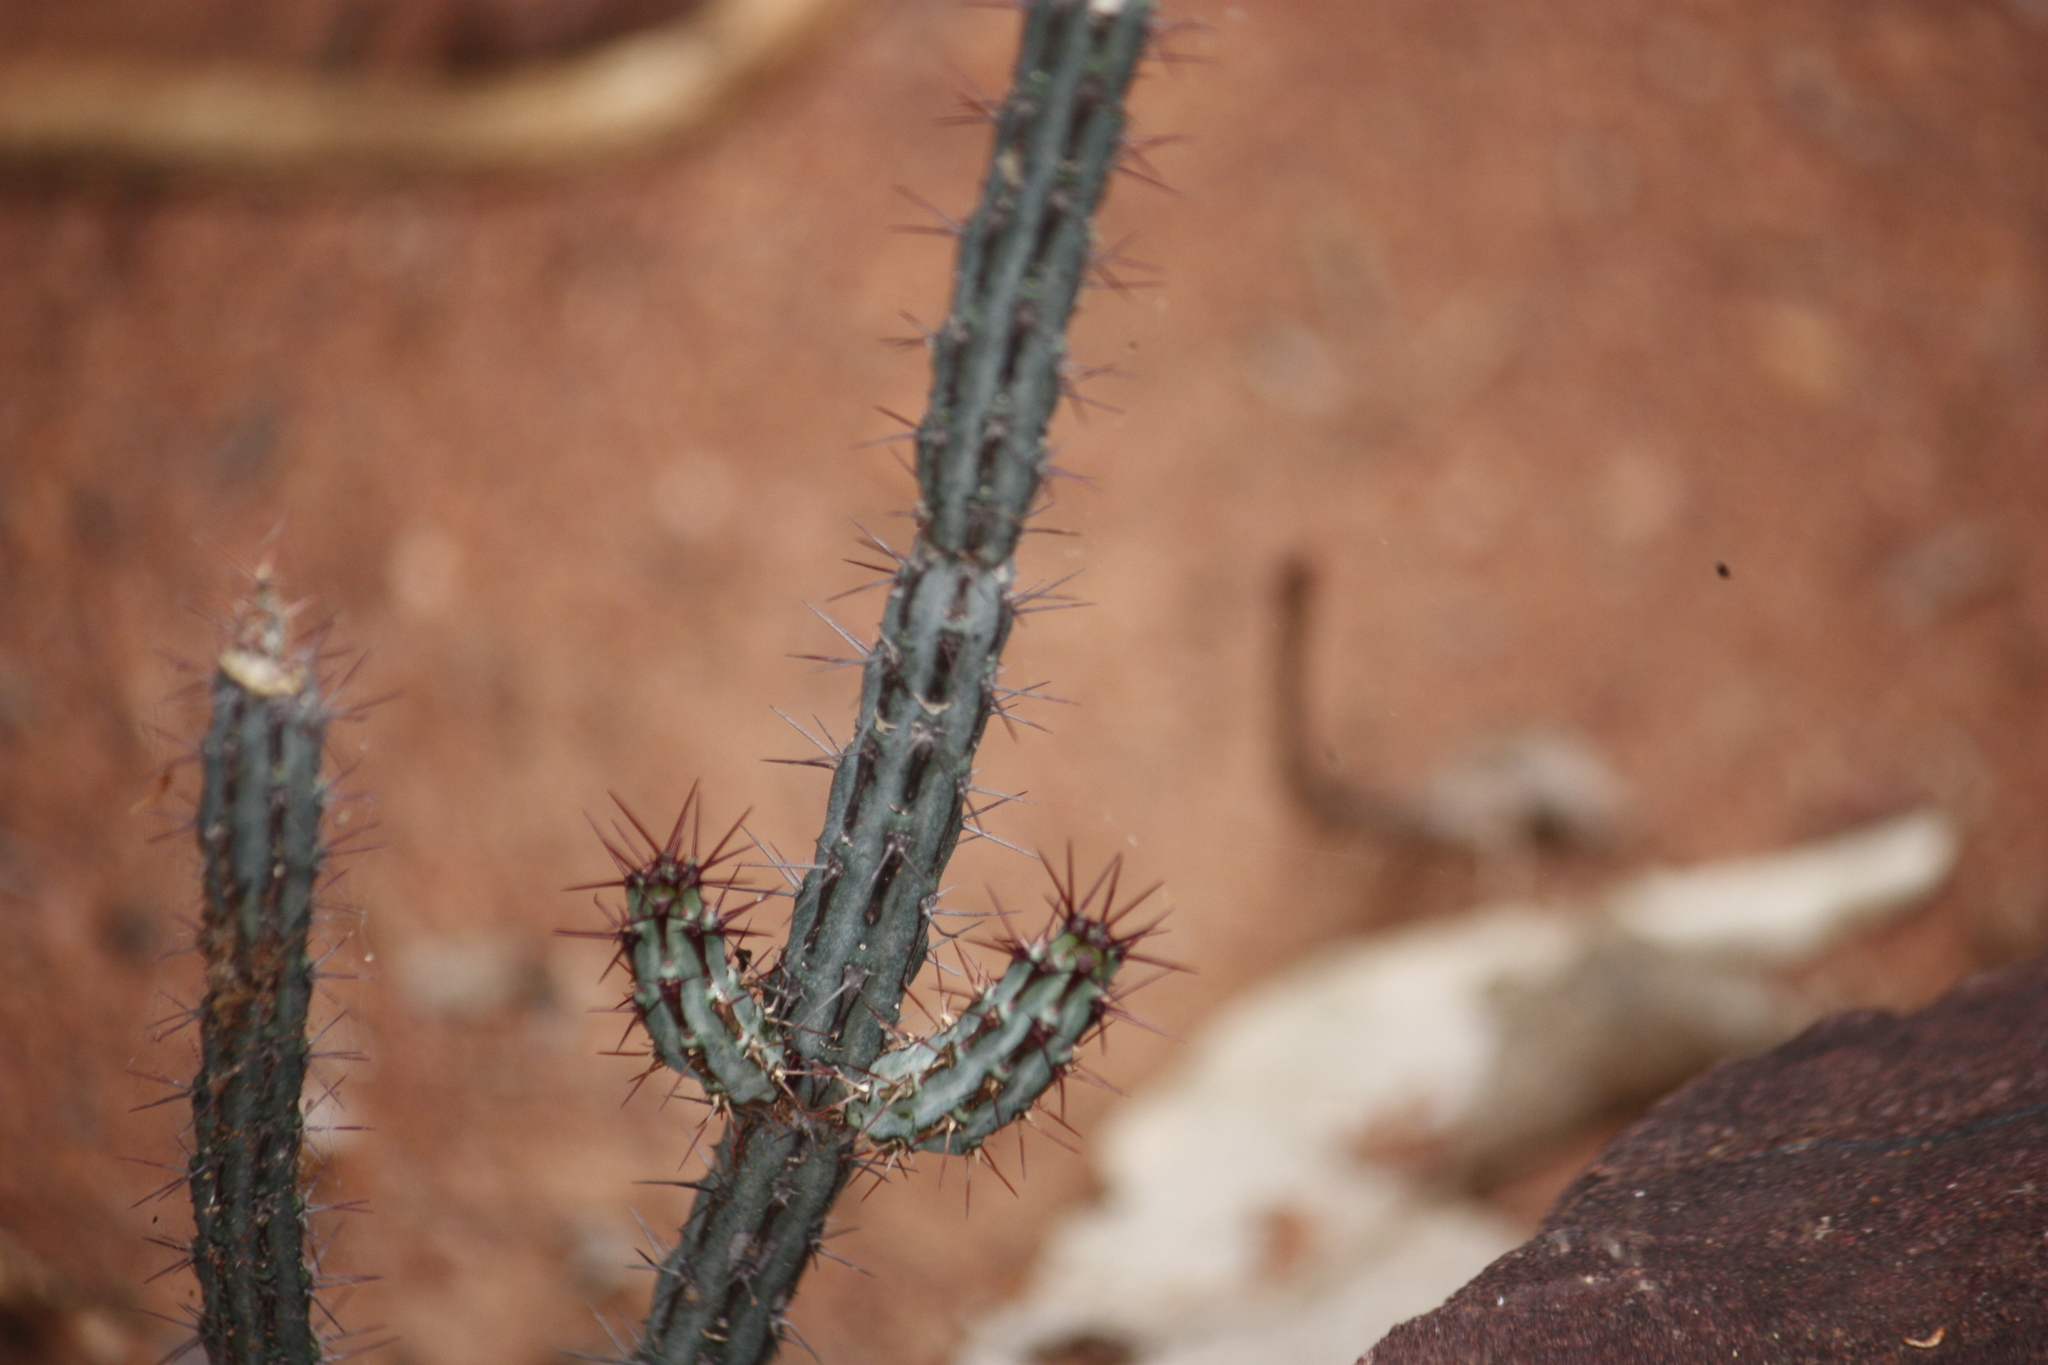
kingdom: Plantae
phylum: Tracheophyta
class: Magnoliopsida
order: Malpighiales
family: Euphorbiaceae
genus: Euphorbia
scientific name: Euphorbia louwii
